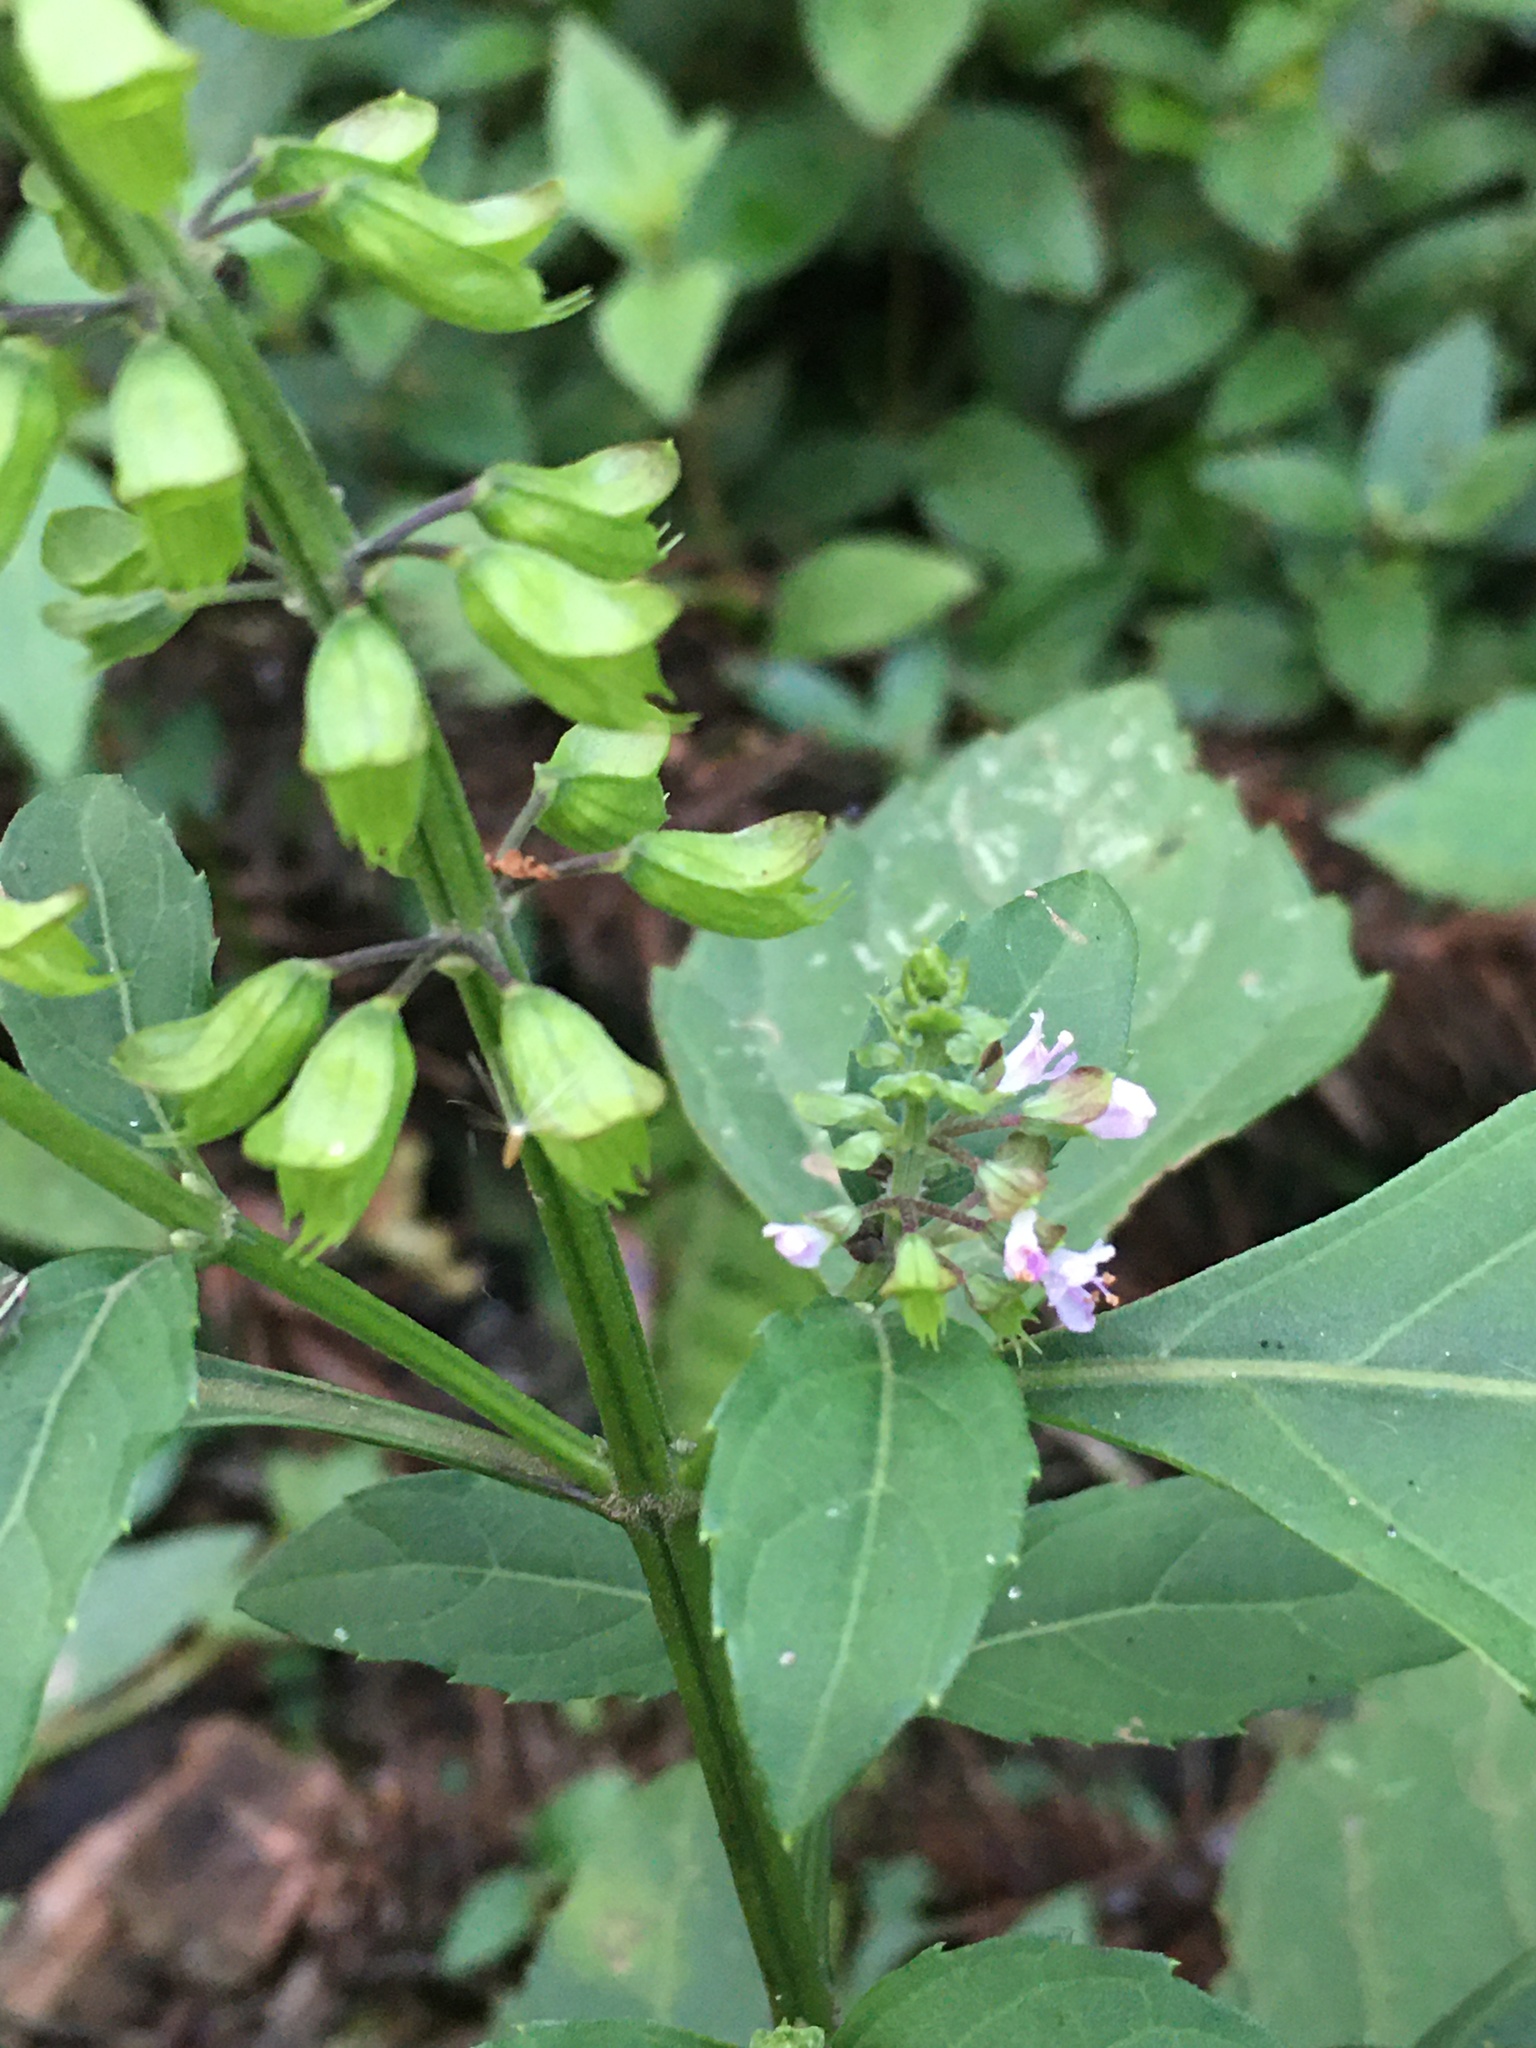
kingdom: Plantae
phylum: Tracheophyta
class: Magnoliopsida
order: Lamiales
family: Lamiaceae
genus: Ocimum
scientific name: Ocimum carnosum
